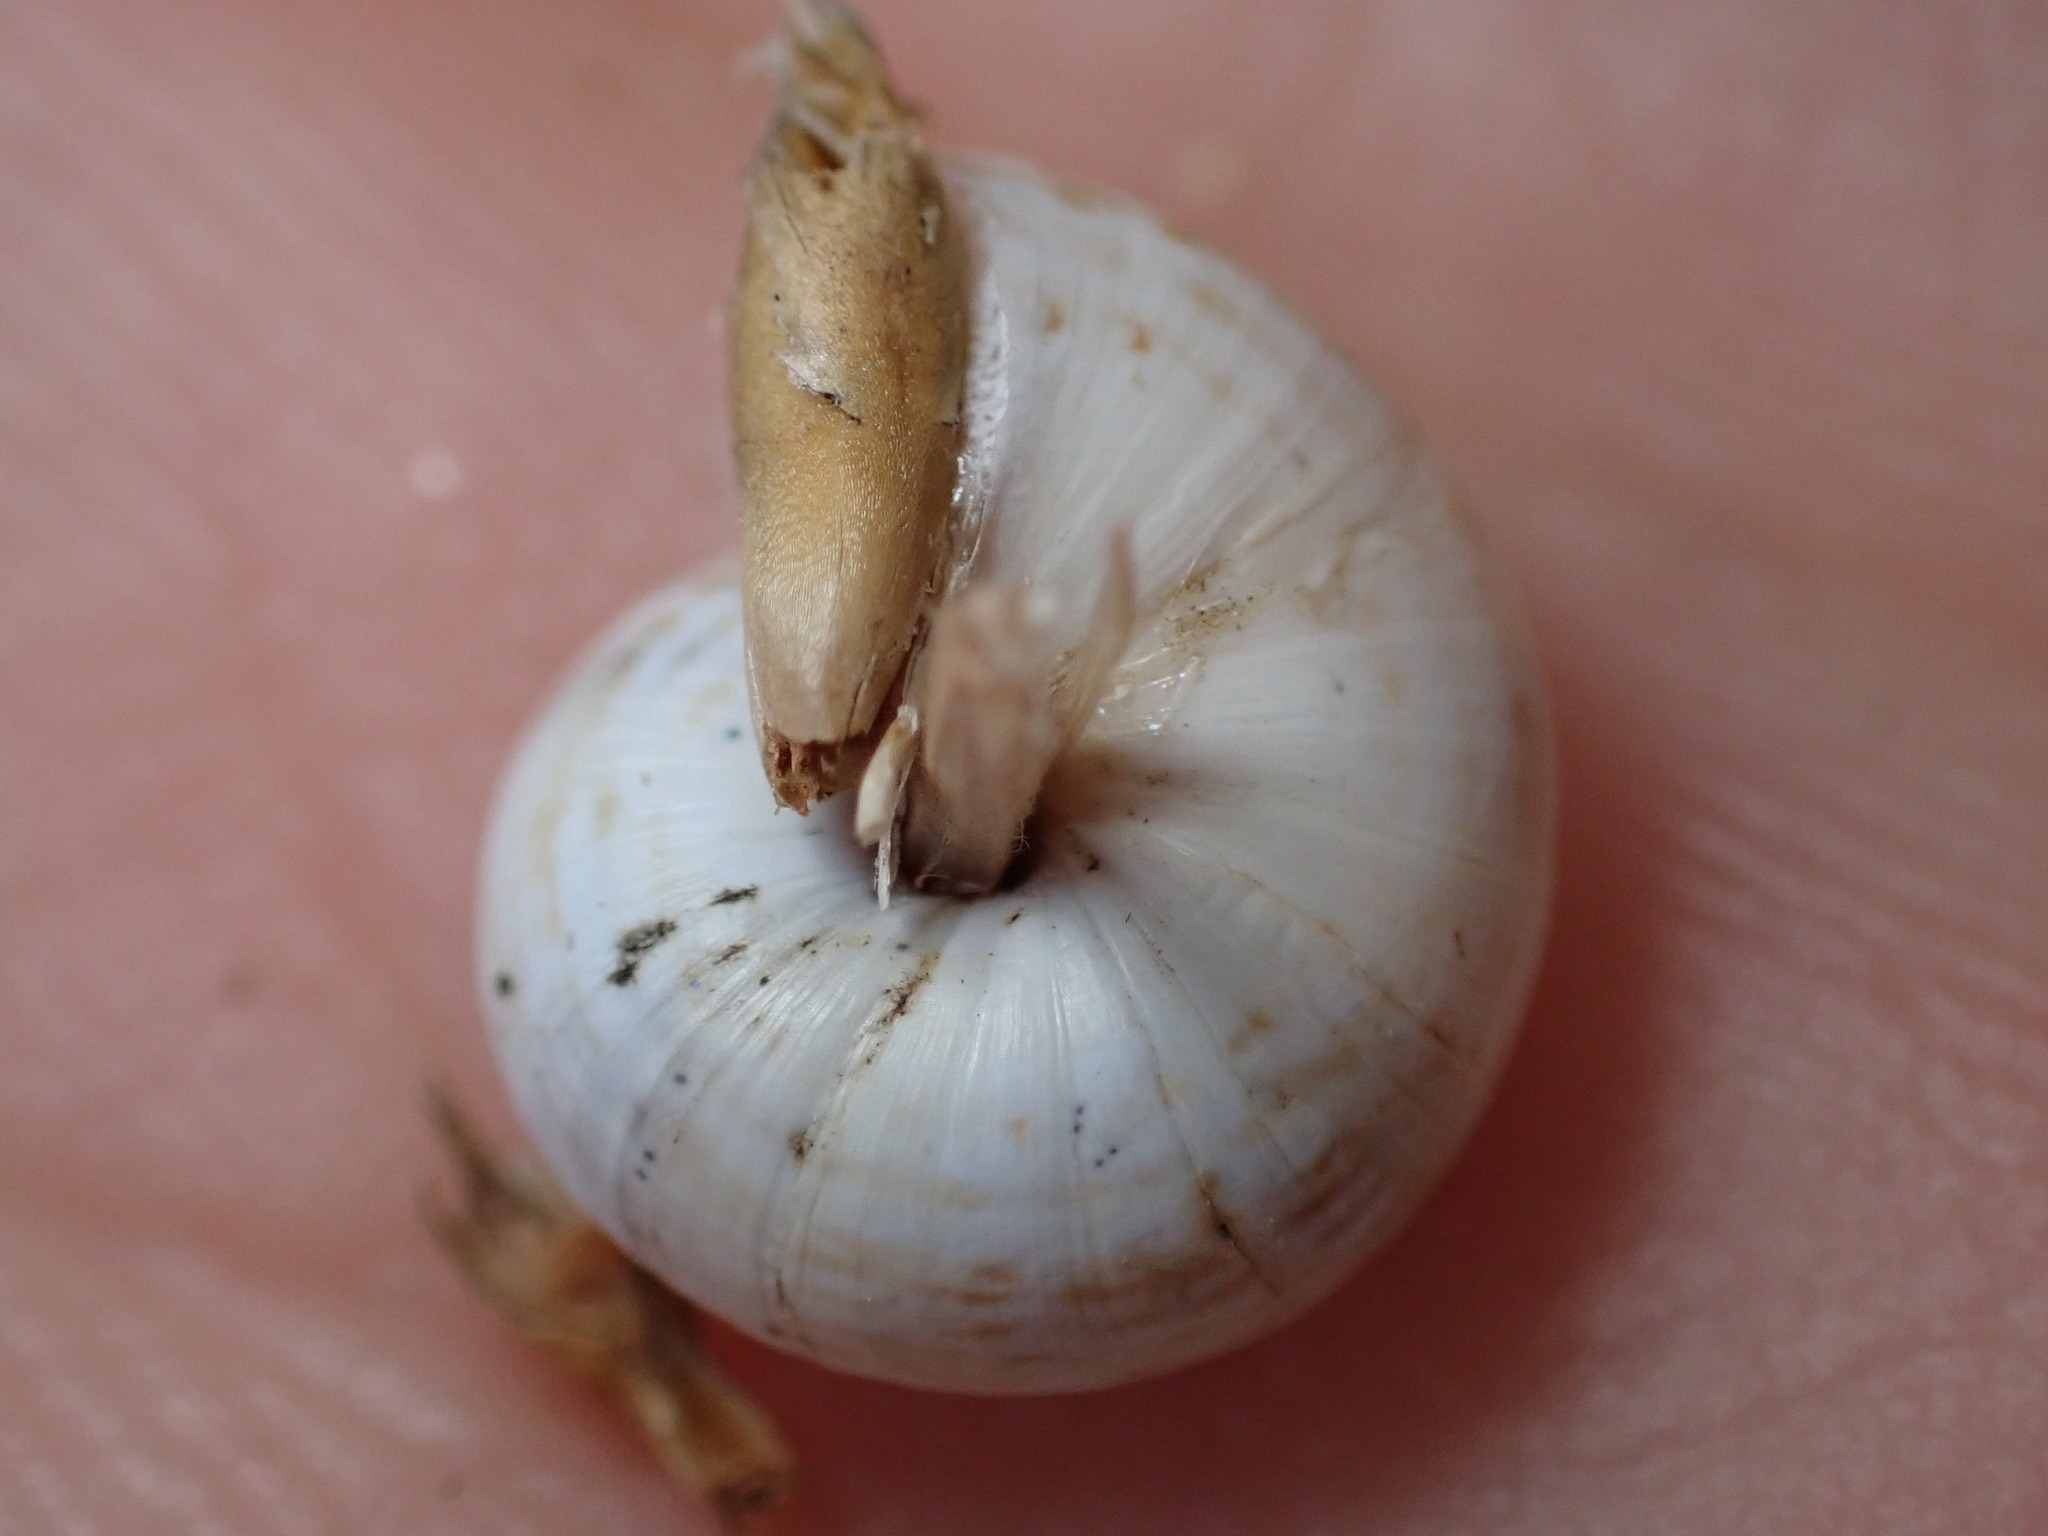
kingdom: Animalia
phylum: Mollusca
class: Gastropoda
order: Stylommatophora
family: Geomitridae
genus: Xeropicta
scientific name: Xeropicta derbentina
